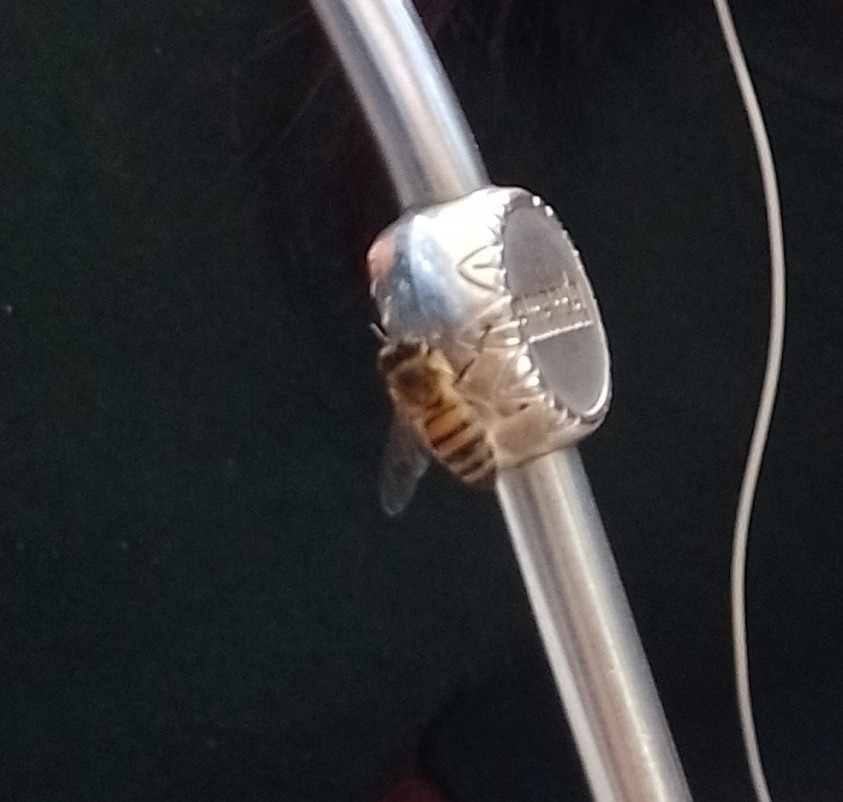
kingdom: Animalia
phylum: Arthropoda
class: Insecta
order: Hymenoptera
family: Apidae
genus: Apis
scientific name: Apis mellifera
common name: Honey bee
